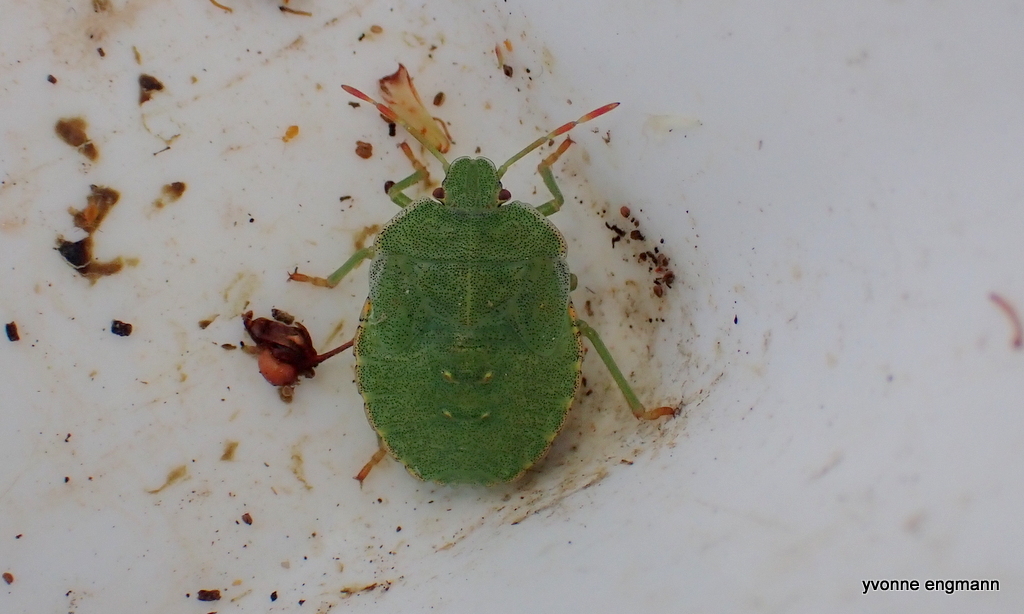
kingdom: Animalia
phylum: Arthropoda
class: Insecta
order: Hemiptera
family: Pentatomidae
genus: Palomena
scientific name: Palomena prasina
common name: Green shieldbug
